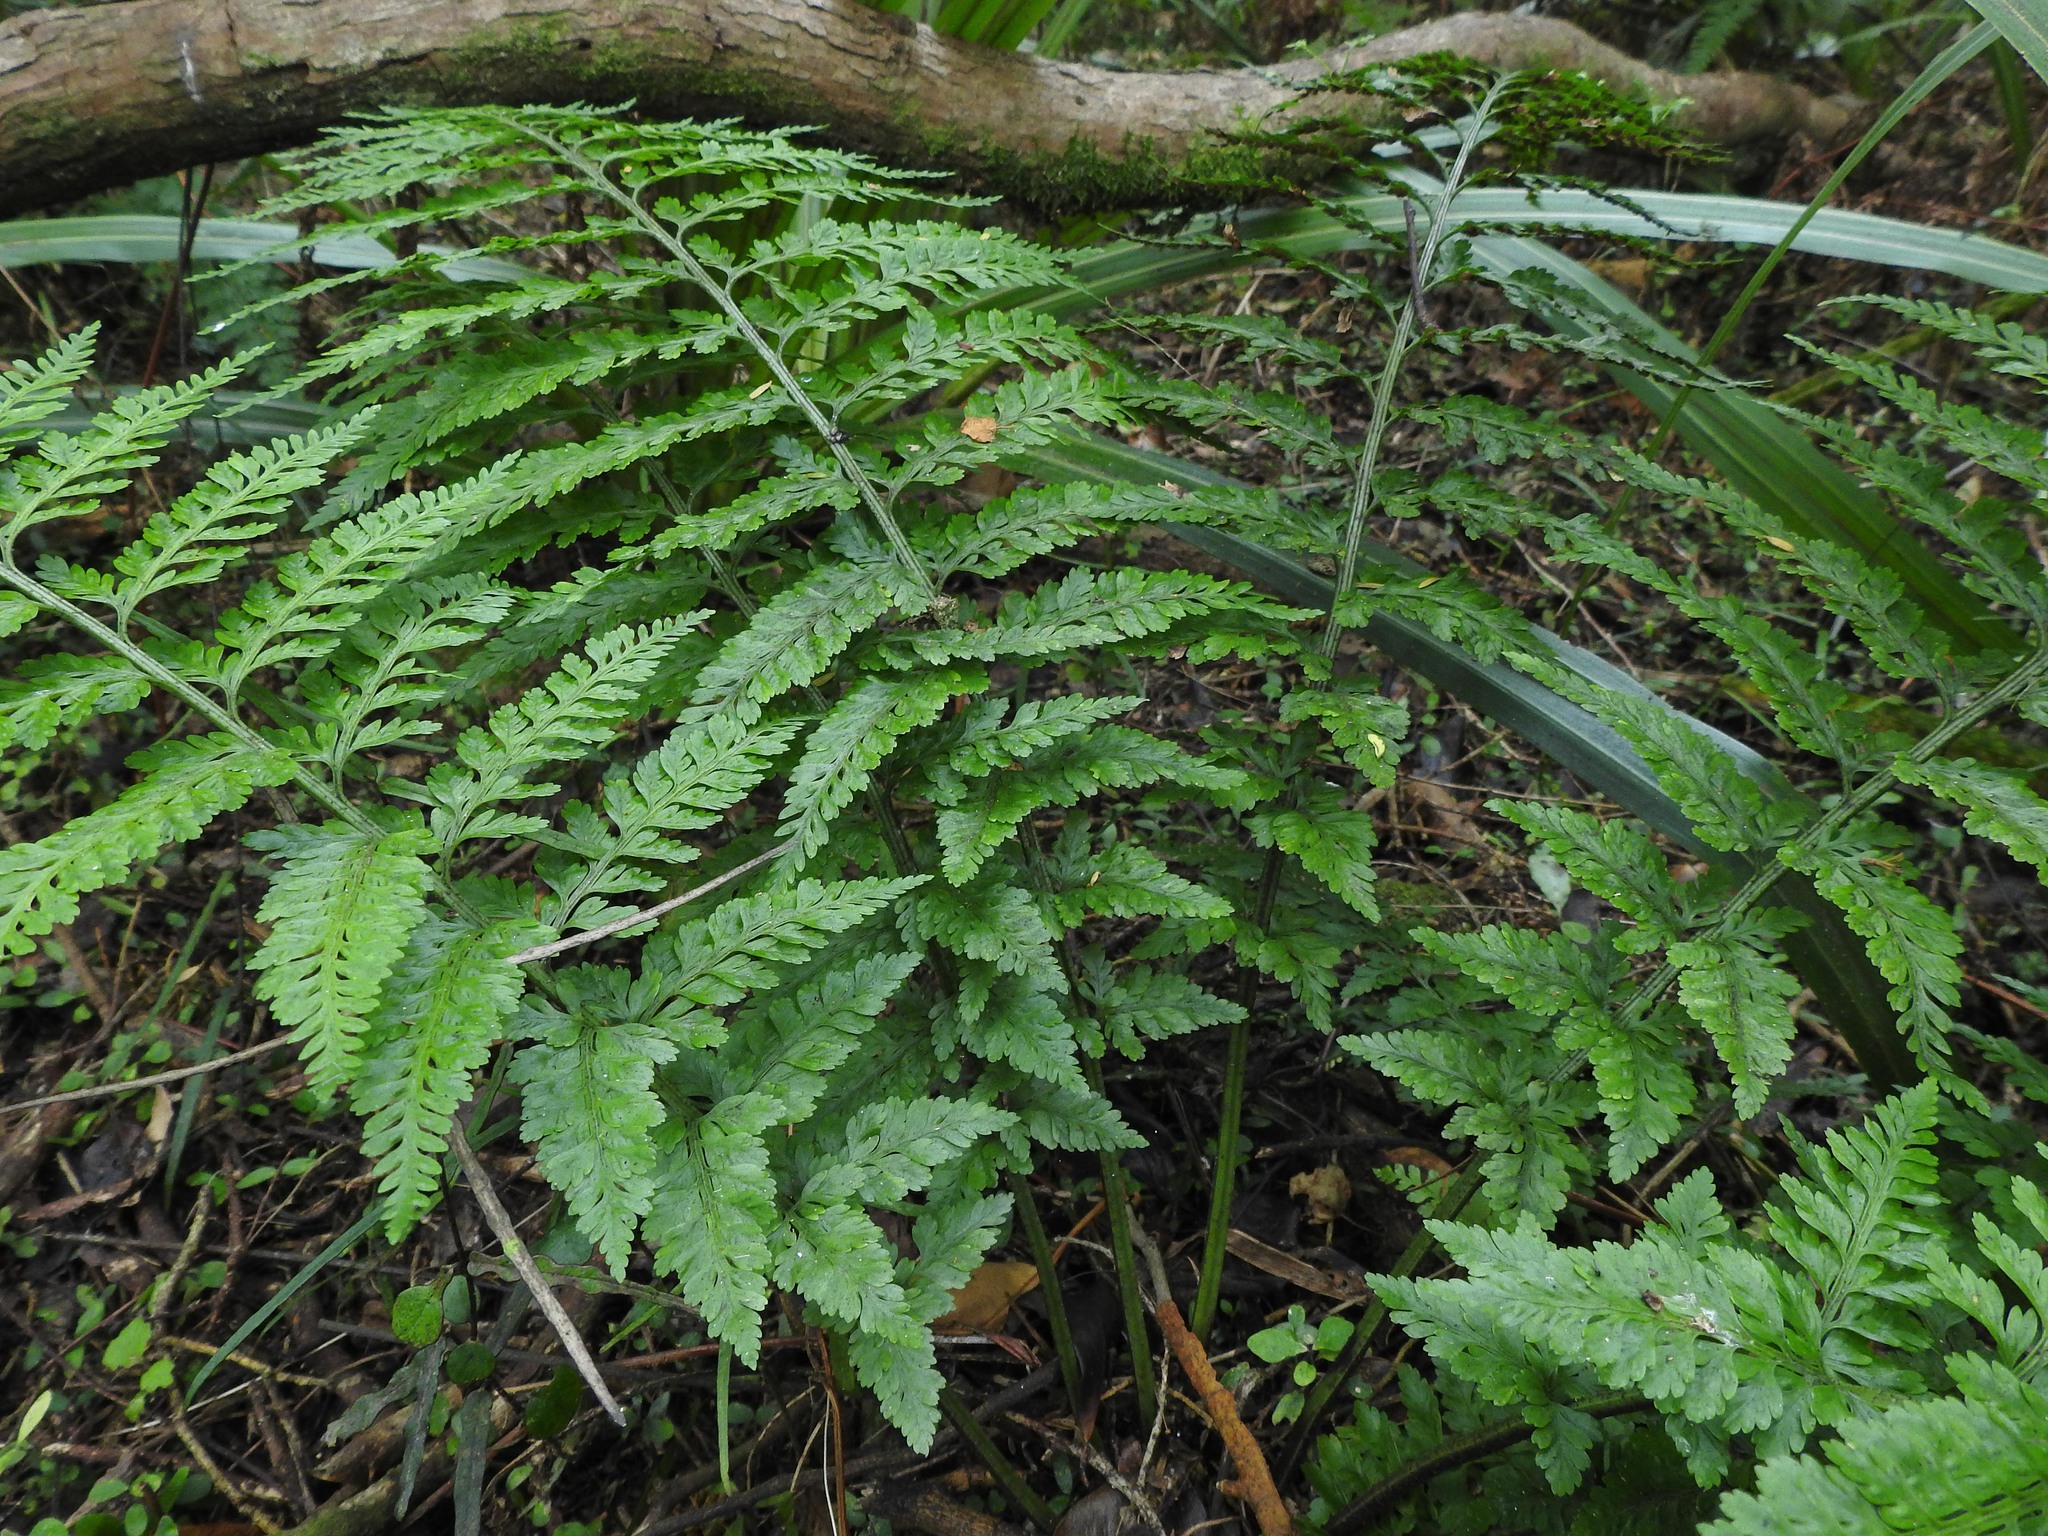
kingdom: Plantae
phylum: Tracheophyta
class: Polypodiopsida
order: Polypodiales
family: Aspleniaceae
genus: Asplenium
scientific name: Asplenium
